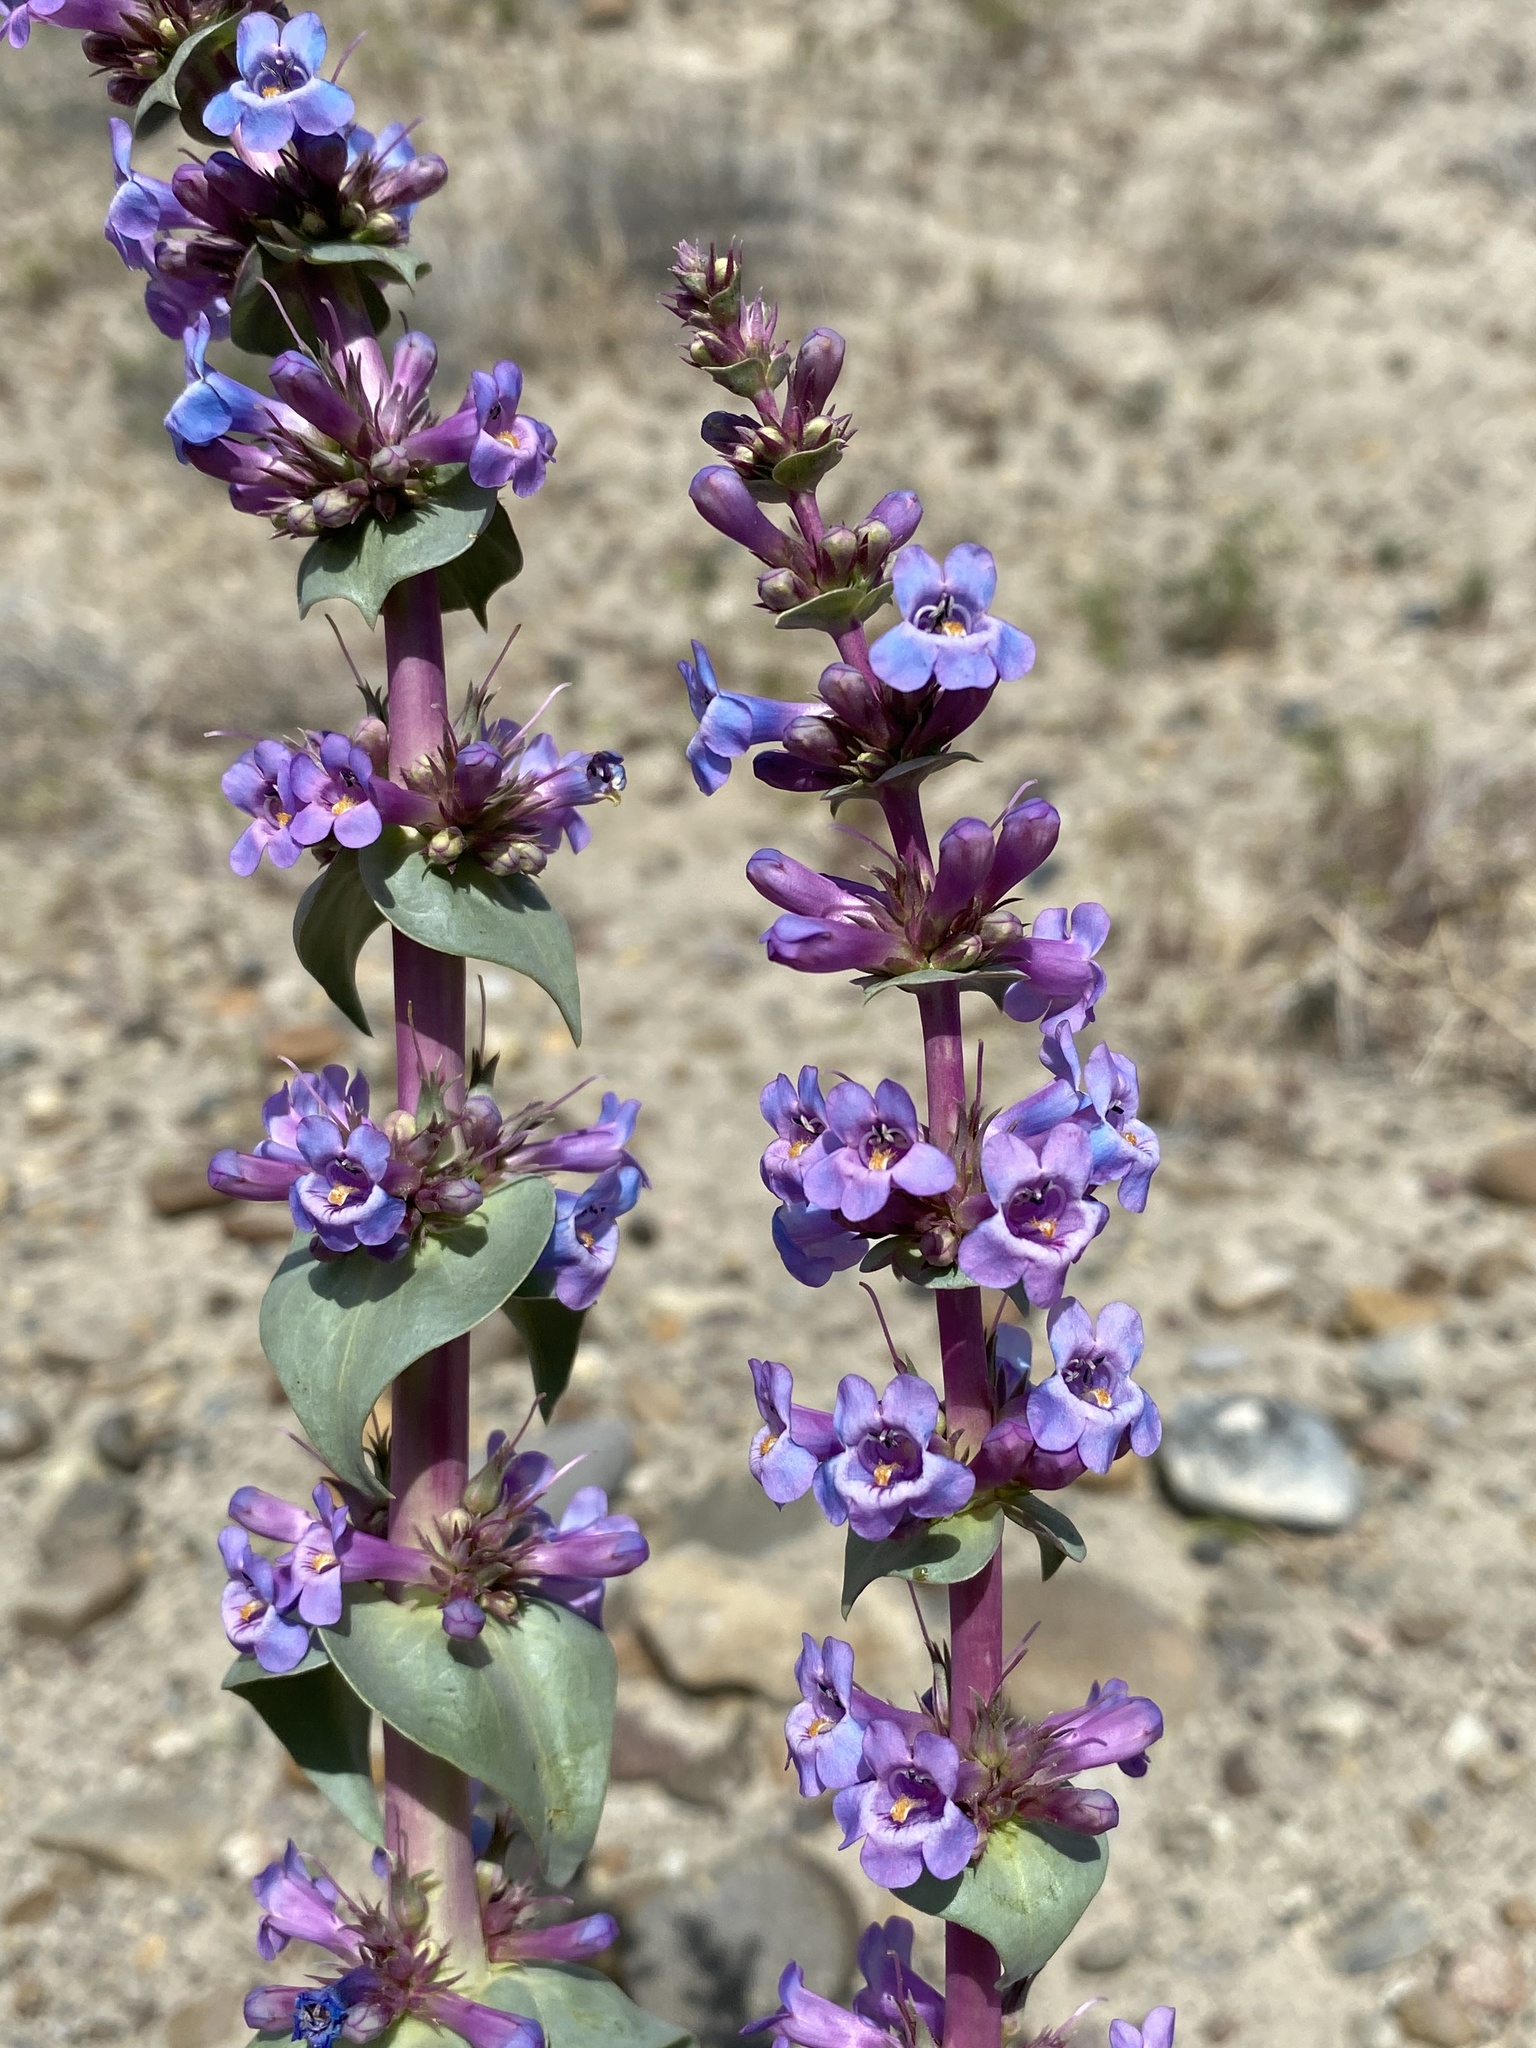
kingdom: Plantae
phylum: Tracheophyta
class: Magnoliopsida
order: Lamiales
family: Plantaginaceae
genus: Penstemon
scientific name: Penstemon acuminatus
